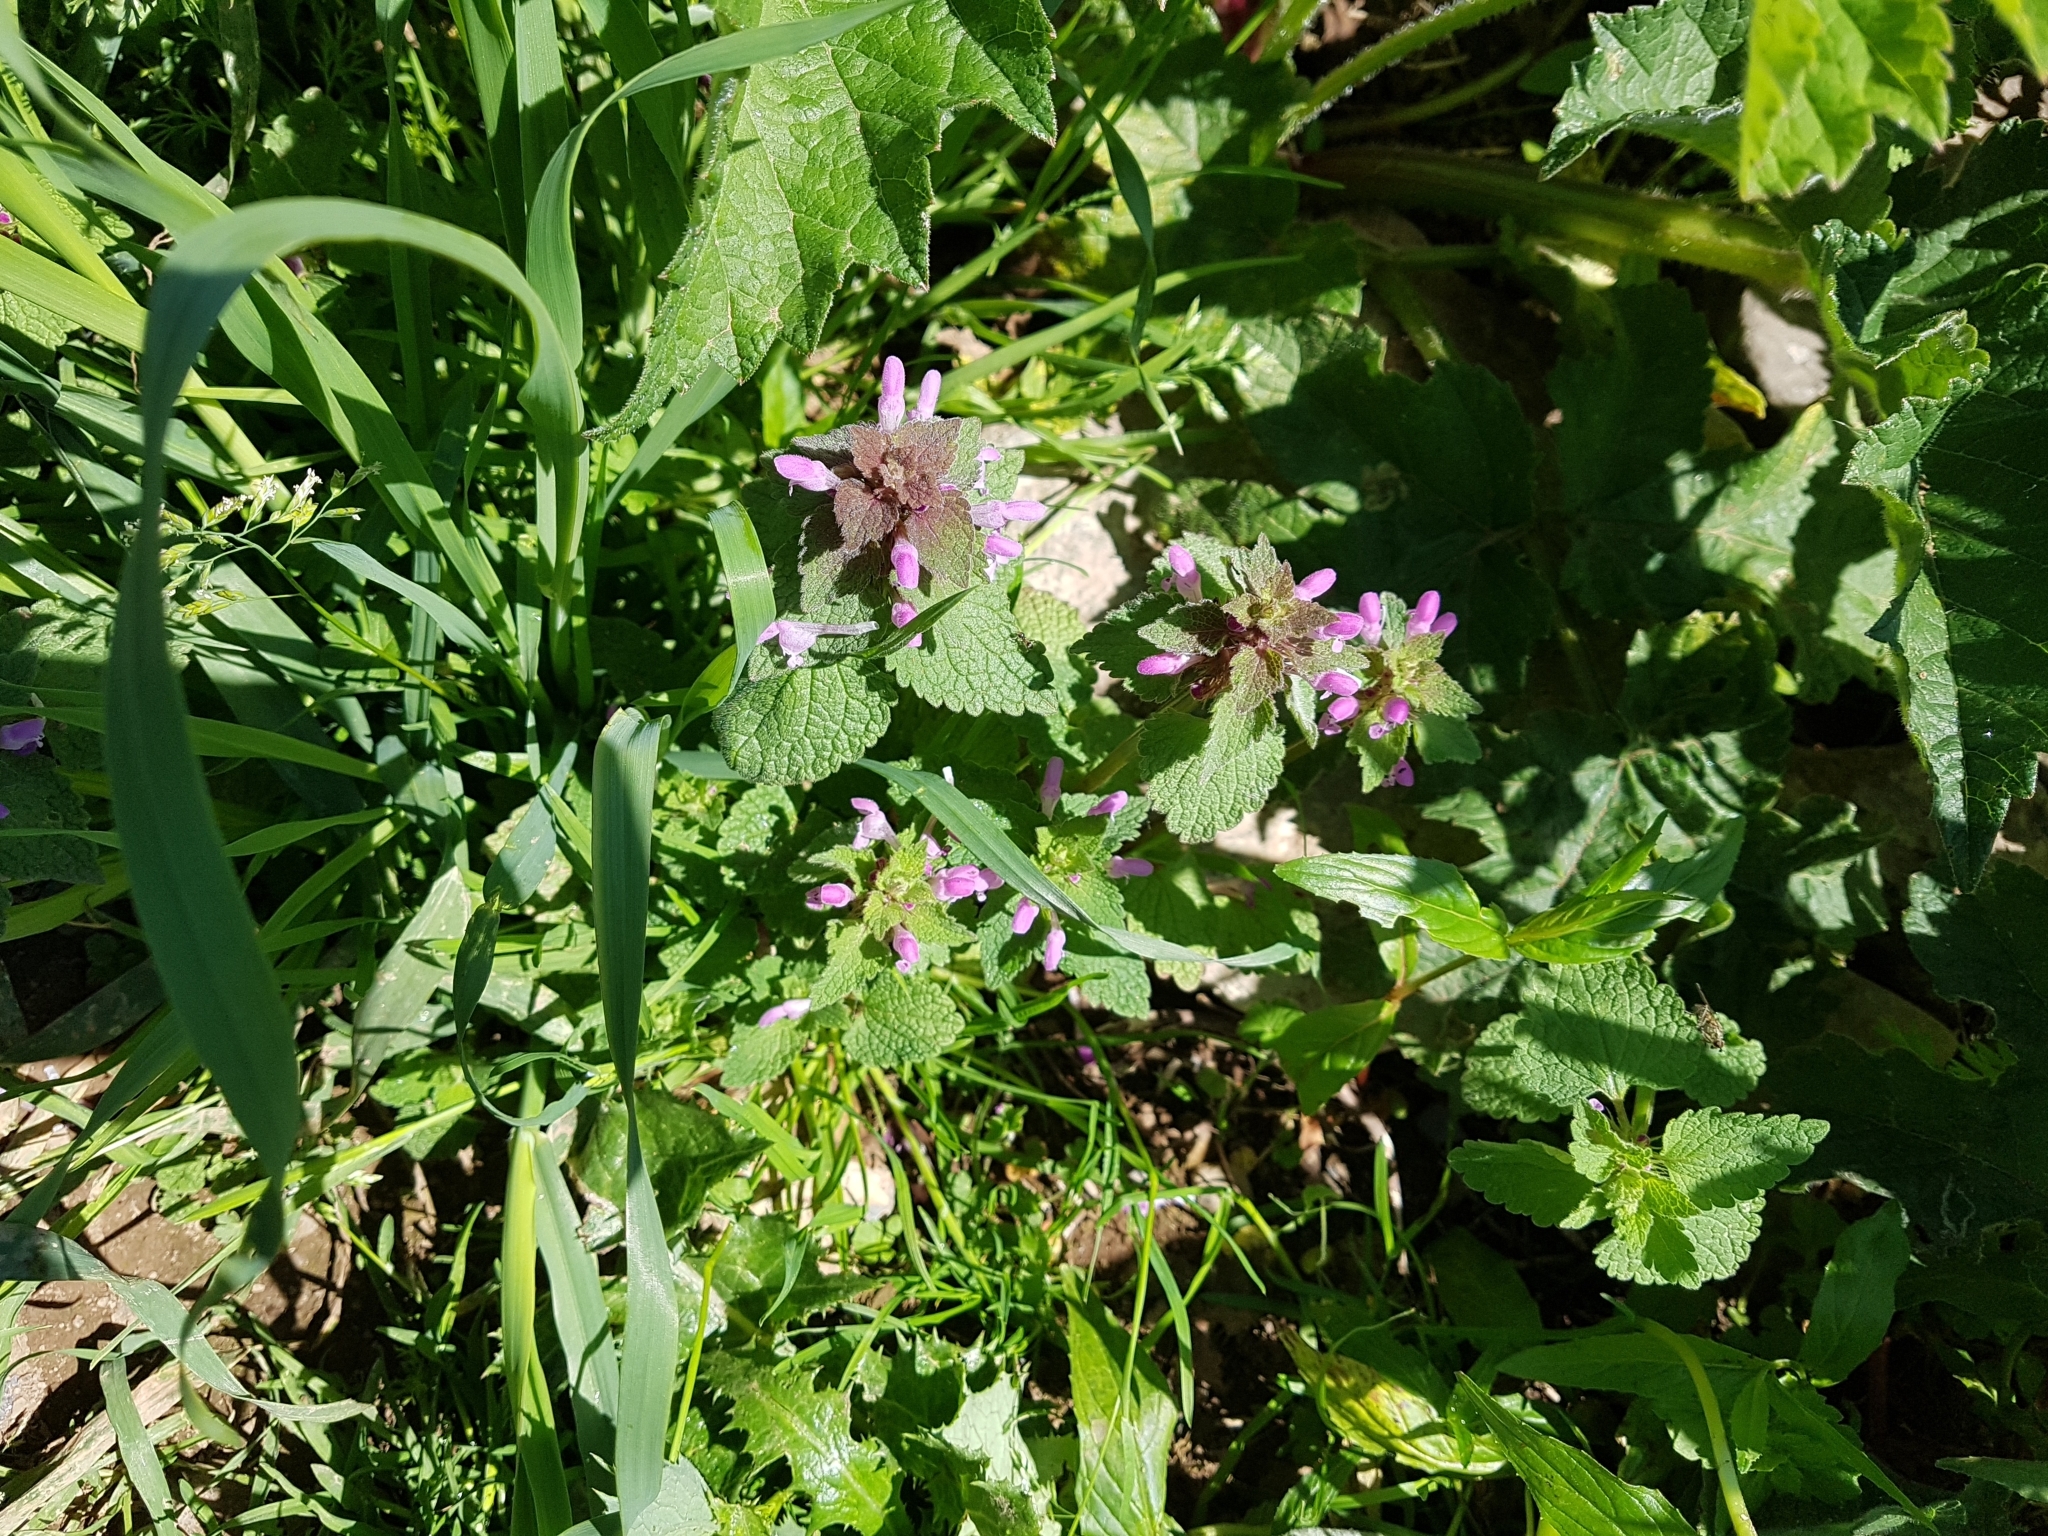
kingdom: Plantae
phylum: Tracheophyta
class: Magnoliopsida
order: Lamiales
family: Lamiaceae
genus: Lamium
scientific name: Lamium purpureum
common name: Red dead-nettle
